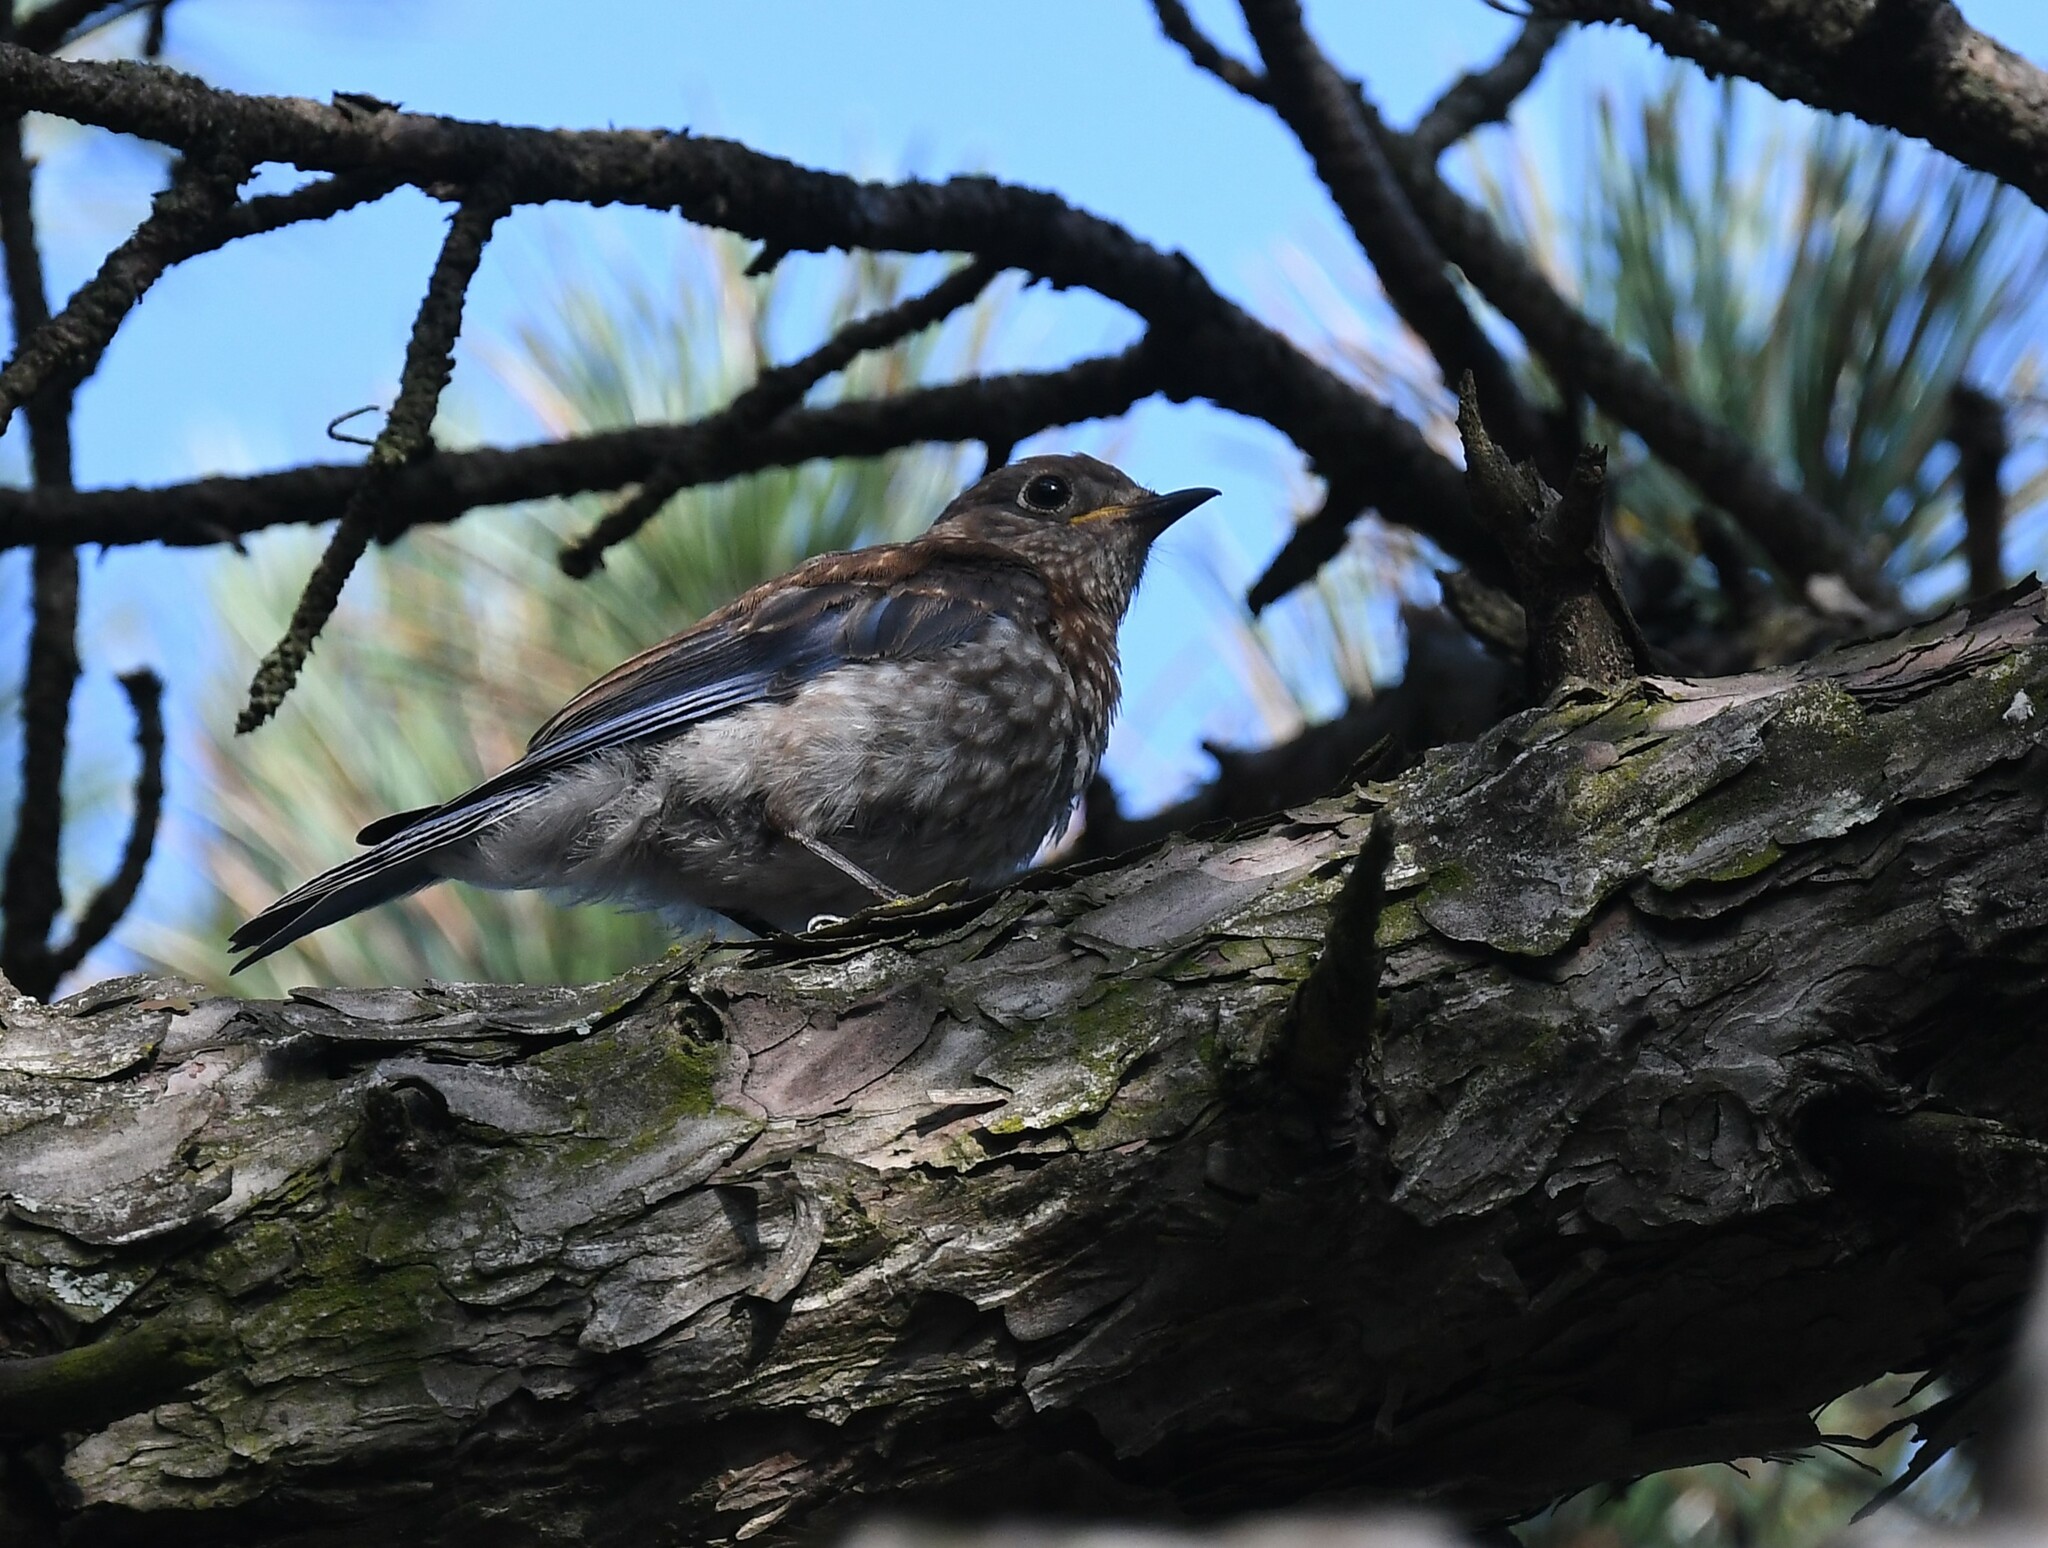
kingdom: Animalia
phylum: Chordata
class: Aves
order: Passeriformes
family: Turdidae
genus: Sialia
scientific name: Sialia sialis
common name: Eastern bluebird
